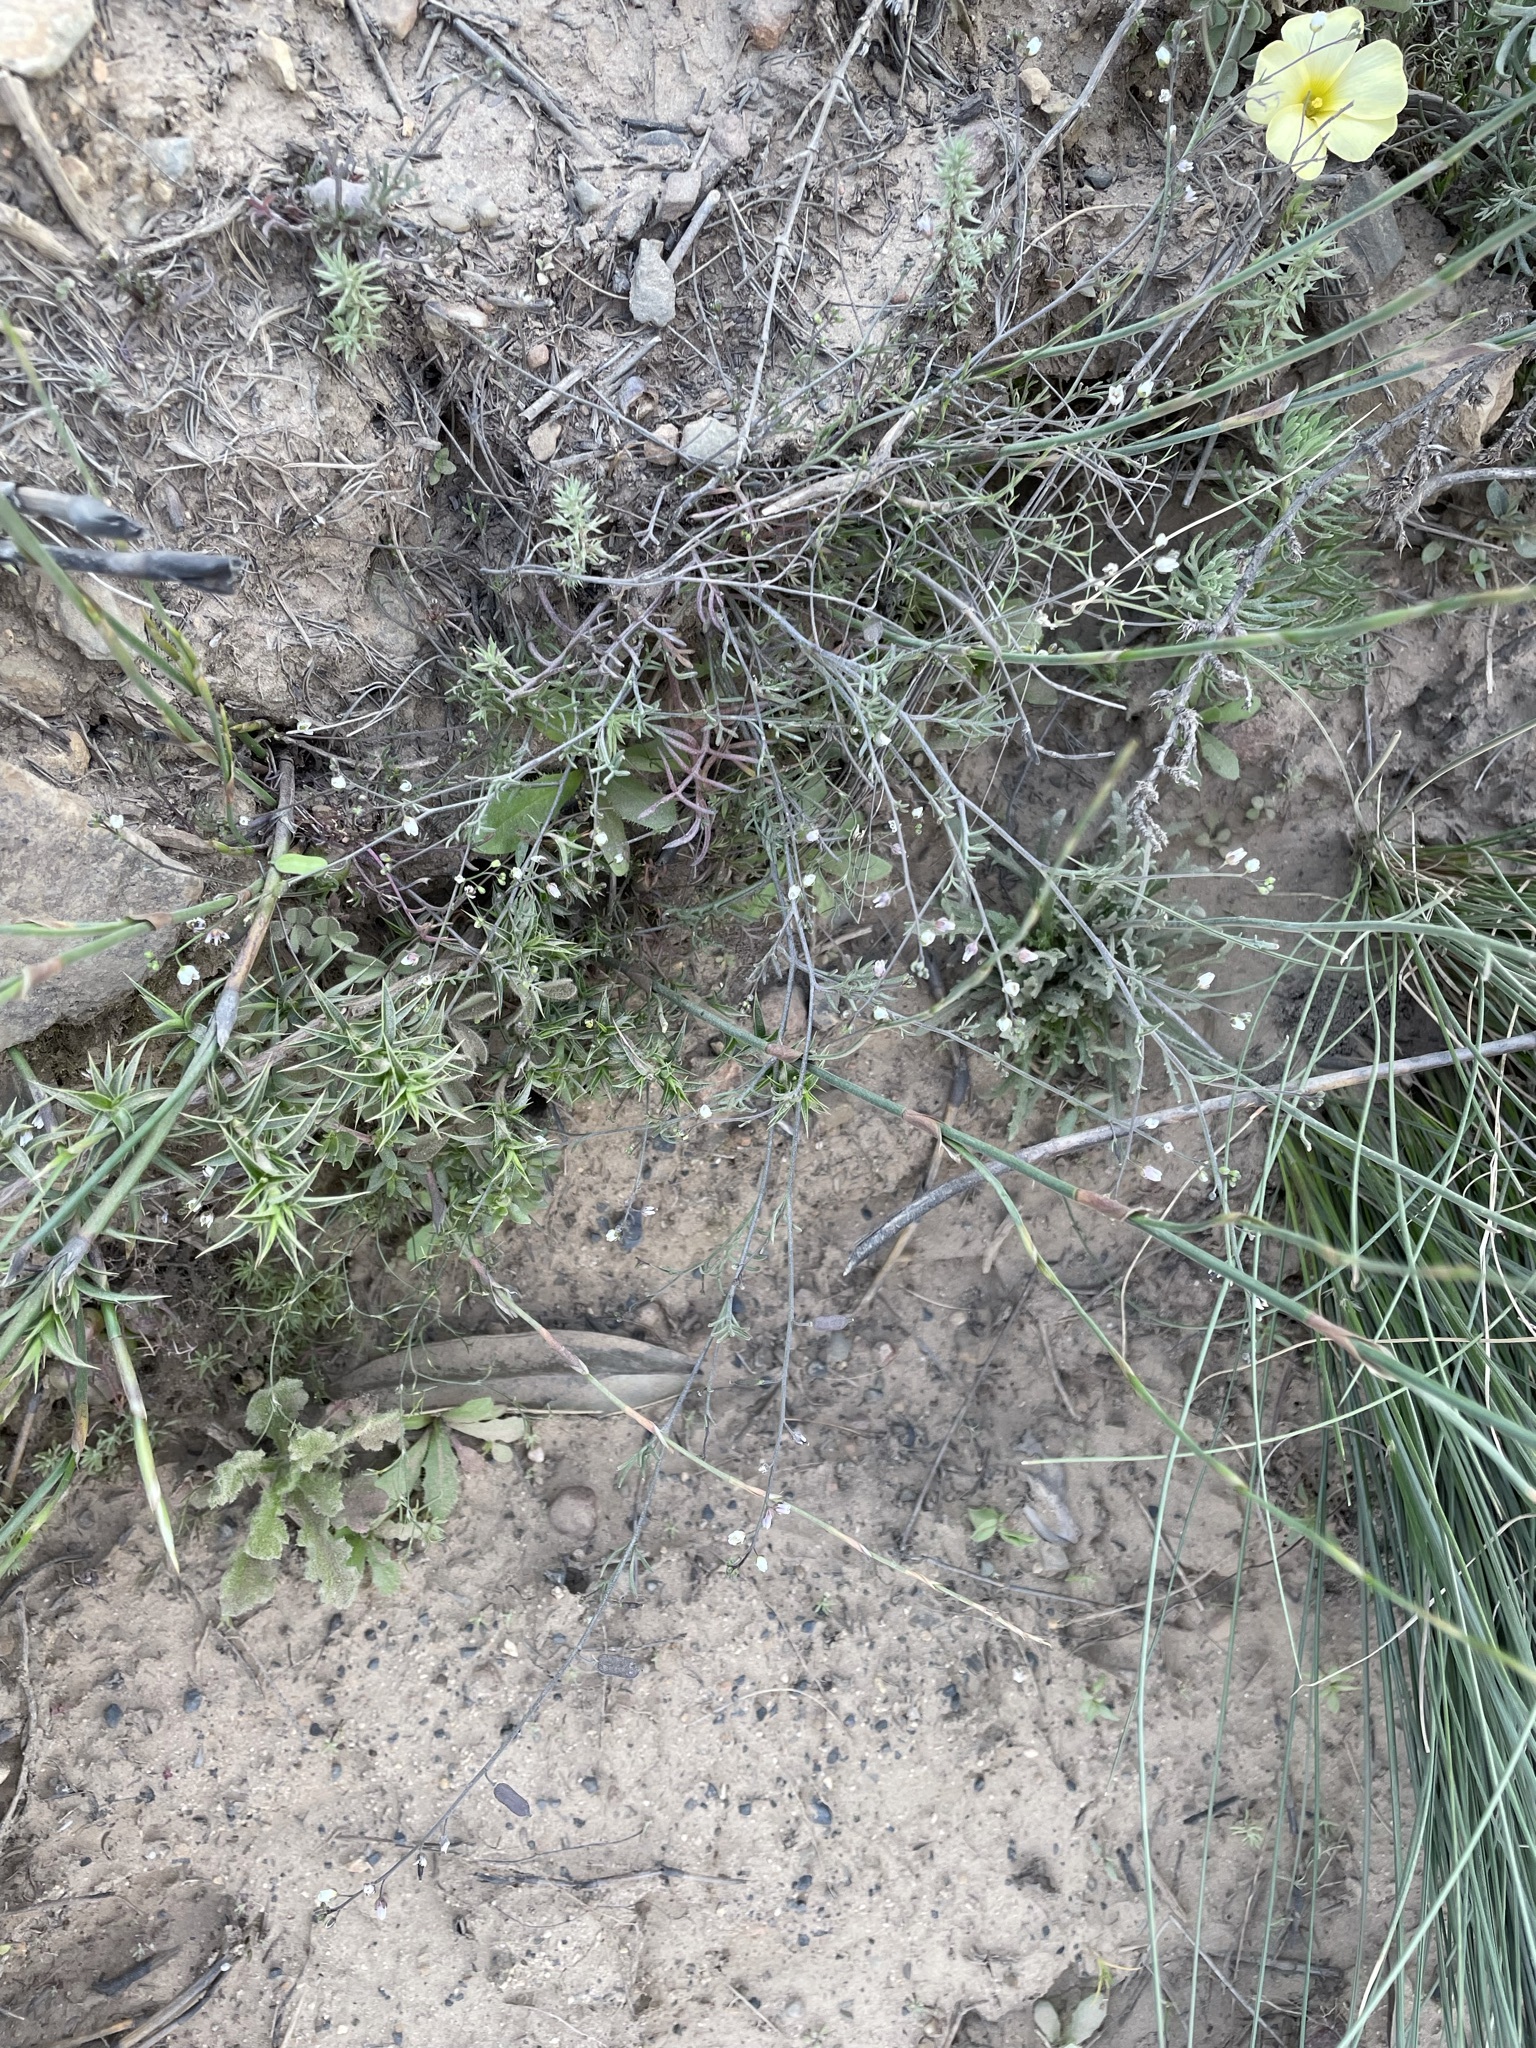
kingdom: Plantae
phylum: Tracheophyta
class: Magnoliopsida
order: Brassicales
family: Brassicaceae
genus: Heliophila
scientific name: Heliophila diffusa
